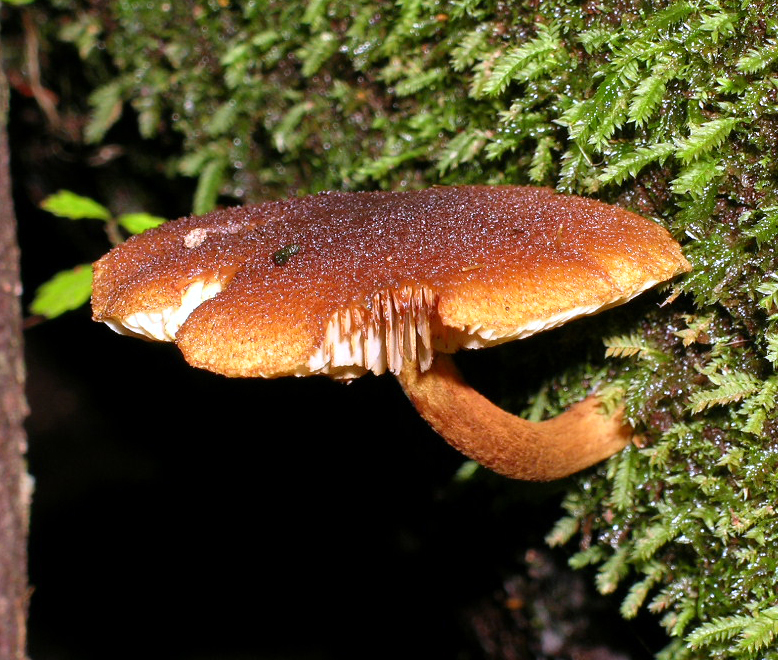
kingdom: Fungi
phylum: Basidiomycota
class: Agaricomycetes
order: Agaricales
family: Hymenogastraceae
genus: Gymnopilus
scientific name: Gymnopilus ferruginosus
